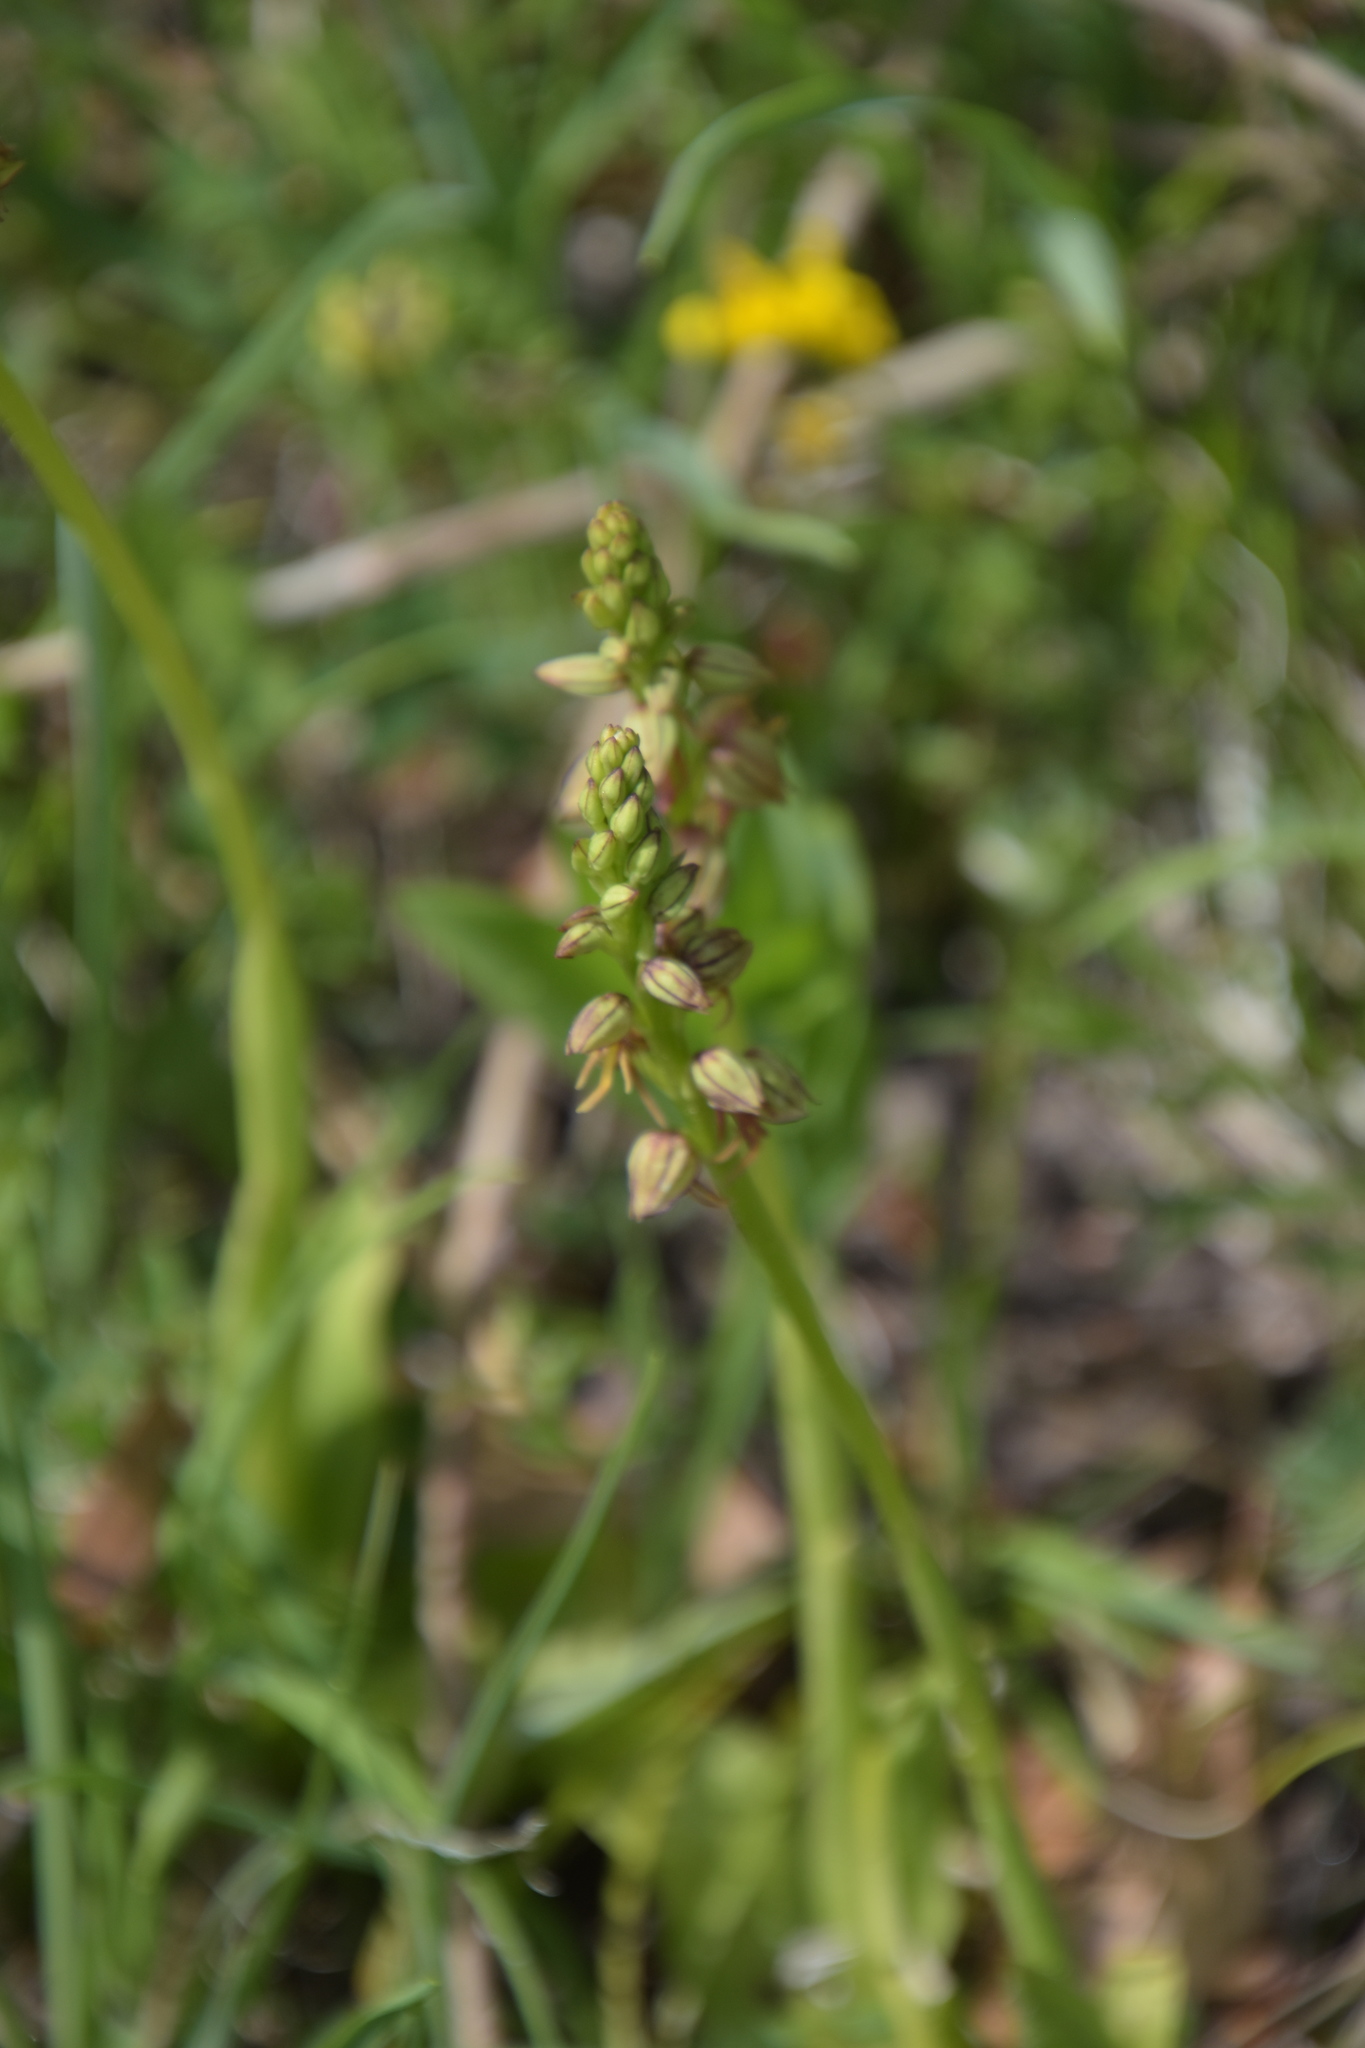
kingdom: Plantae
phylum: Tracheophyta
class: Liliopsida
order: Asparagales
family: Orchidaceae
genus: Orchis
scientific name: Orchis anthropophora
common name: Man orchid
